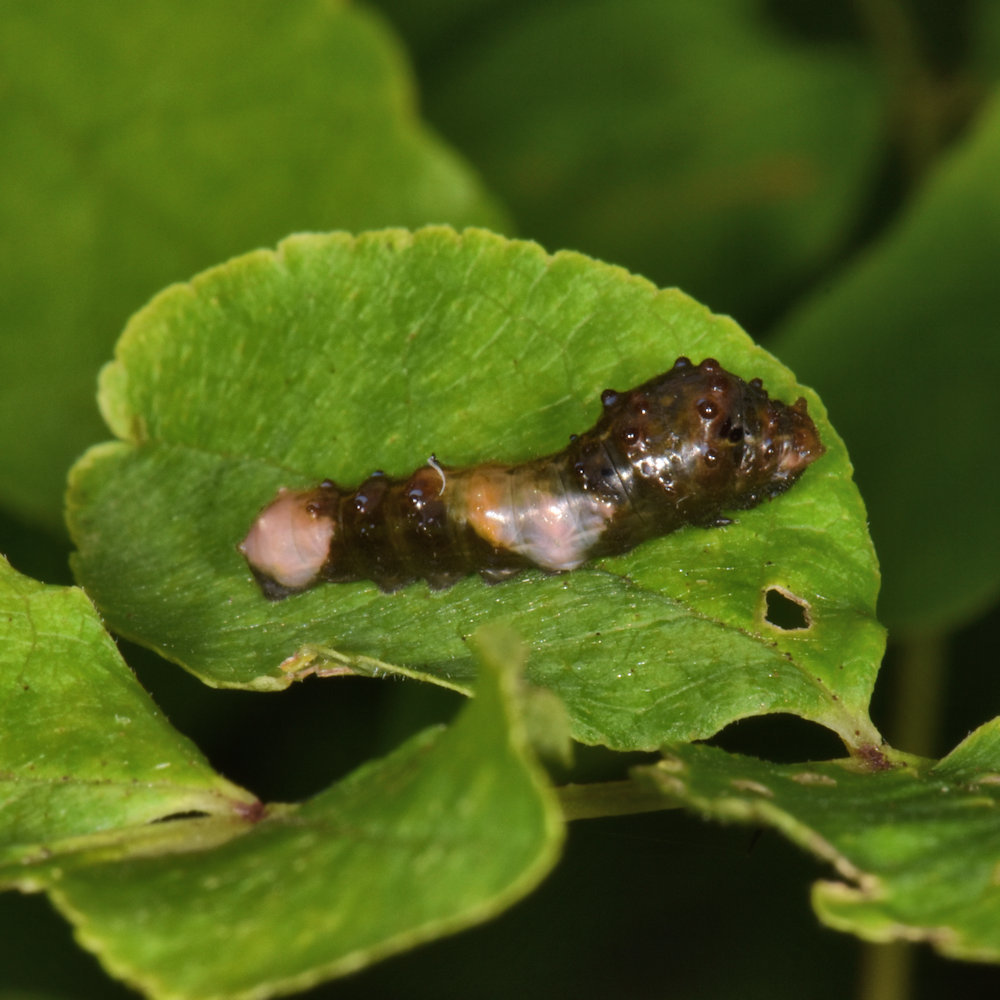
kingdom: Animalia
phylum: Arthropoda
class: Insecta
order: Lepidoptera
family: Papilionidae
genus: Papilio
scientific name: Papilio cresphontes
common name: Giant swallowtail
